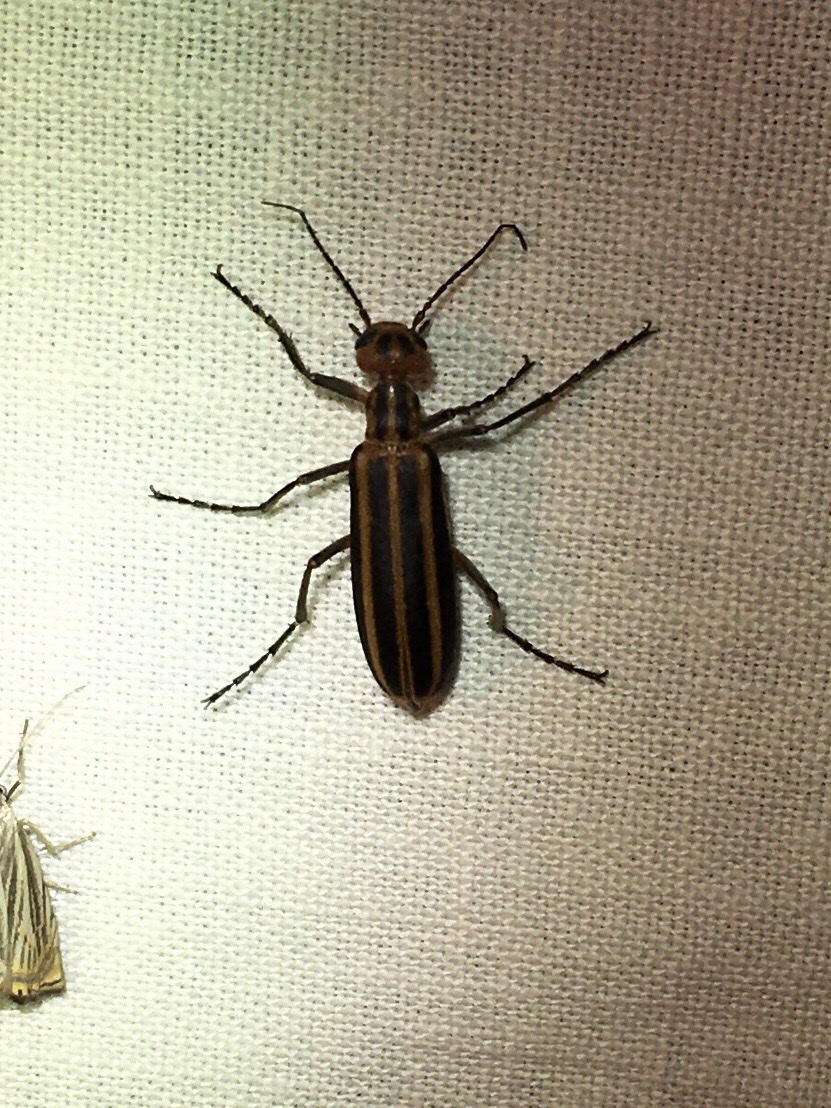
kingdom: Animalia
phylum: Arthropoda
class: Insecta
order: Coleoptera
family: Meloidae
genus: Epicauta
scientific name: Epicauta vittata
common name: Old-fashioned potato beetle
